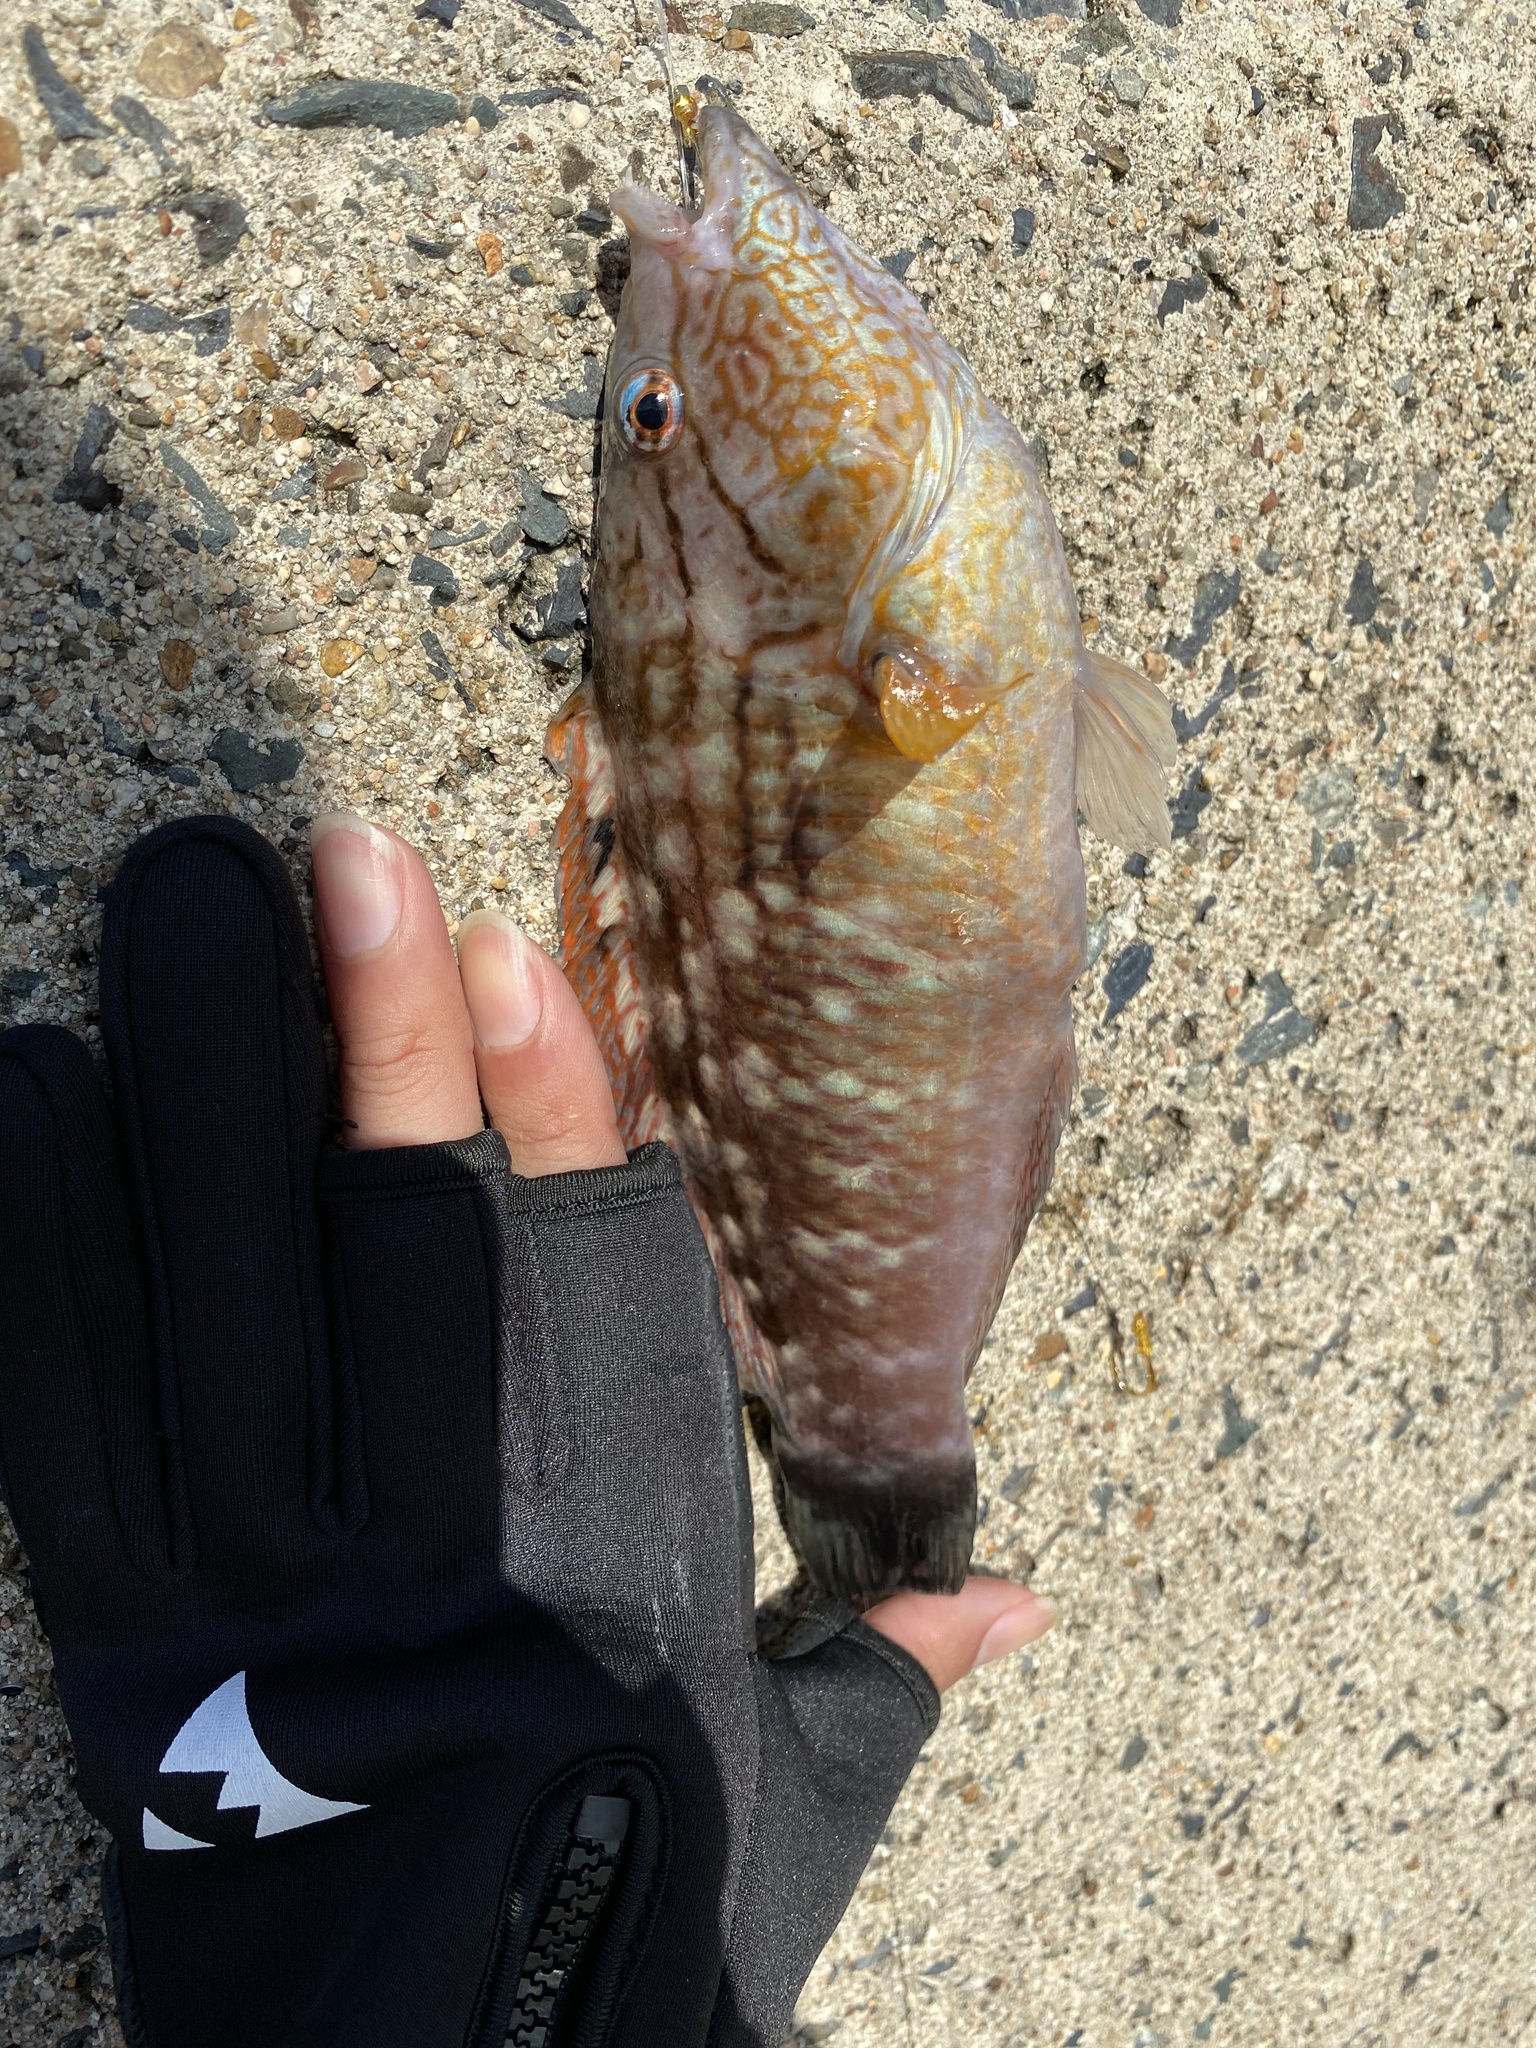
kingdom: Animalia
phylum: Chordata
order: Perciformes
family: Labridae
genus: Pseudolabrus
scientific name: Pseudolabrus sieboldi
